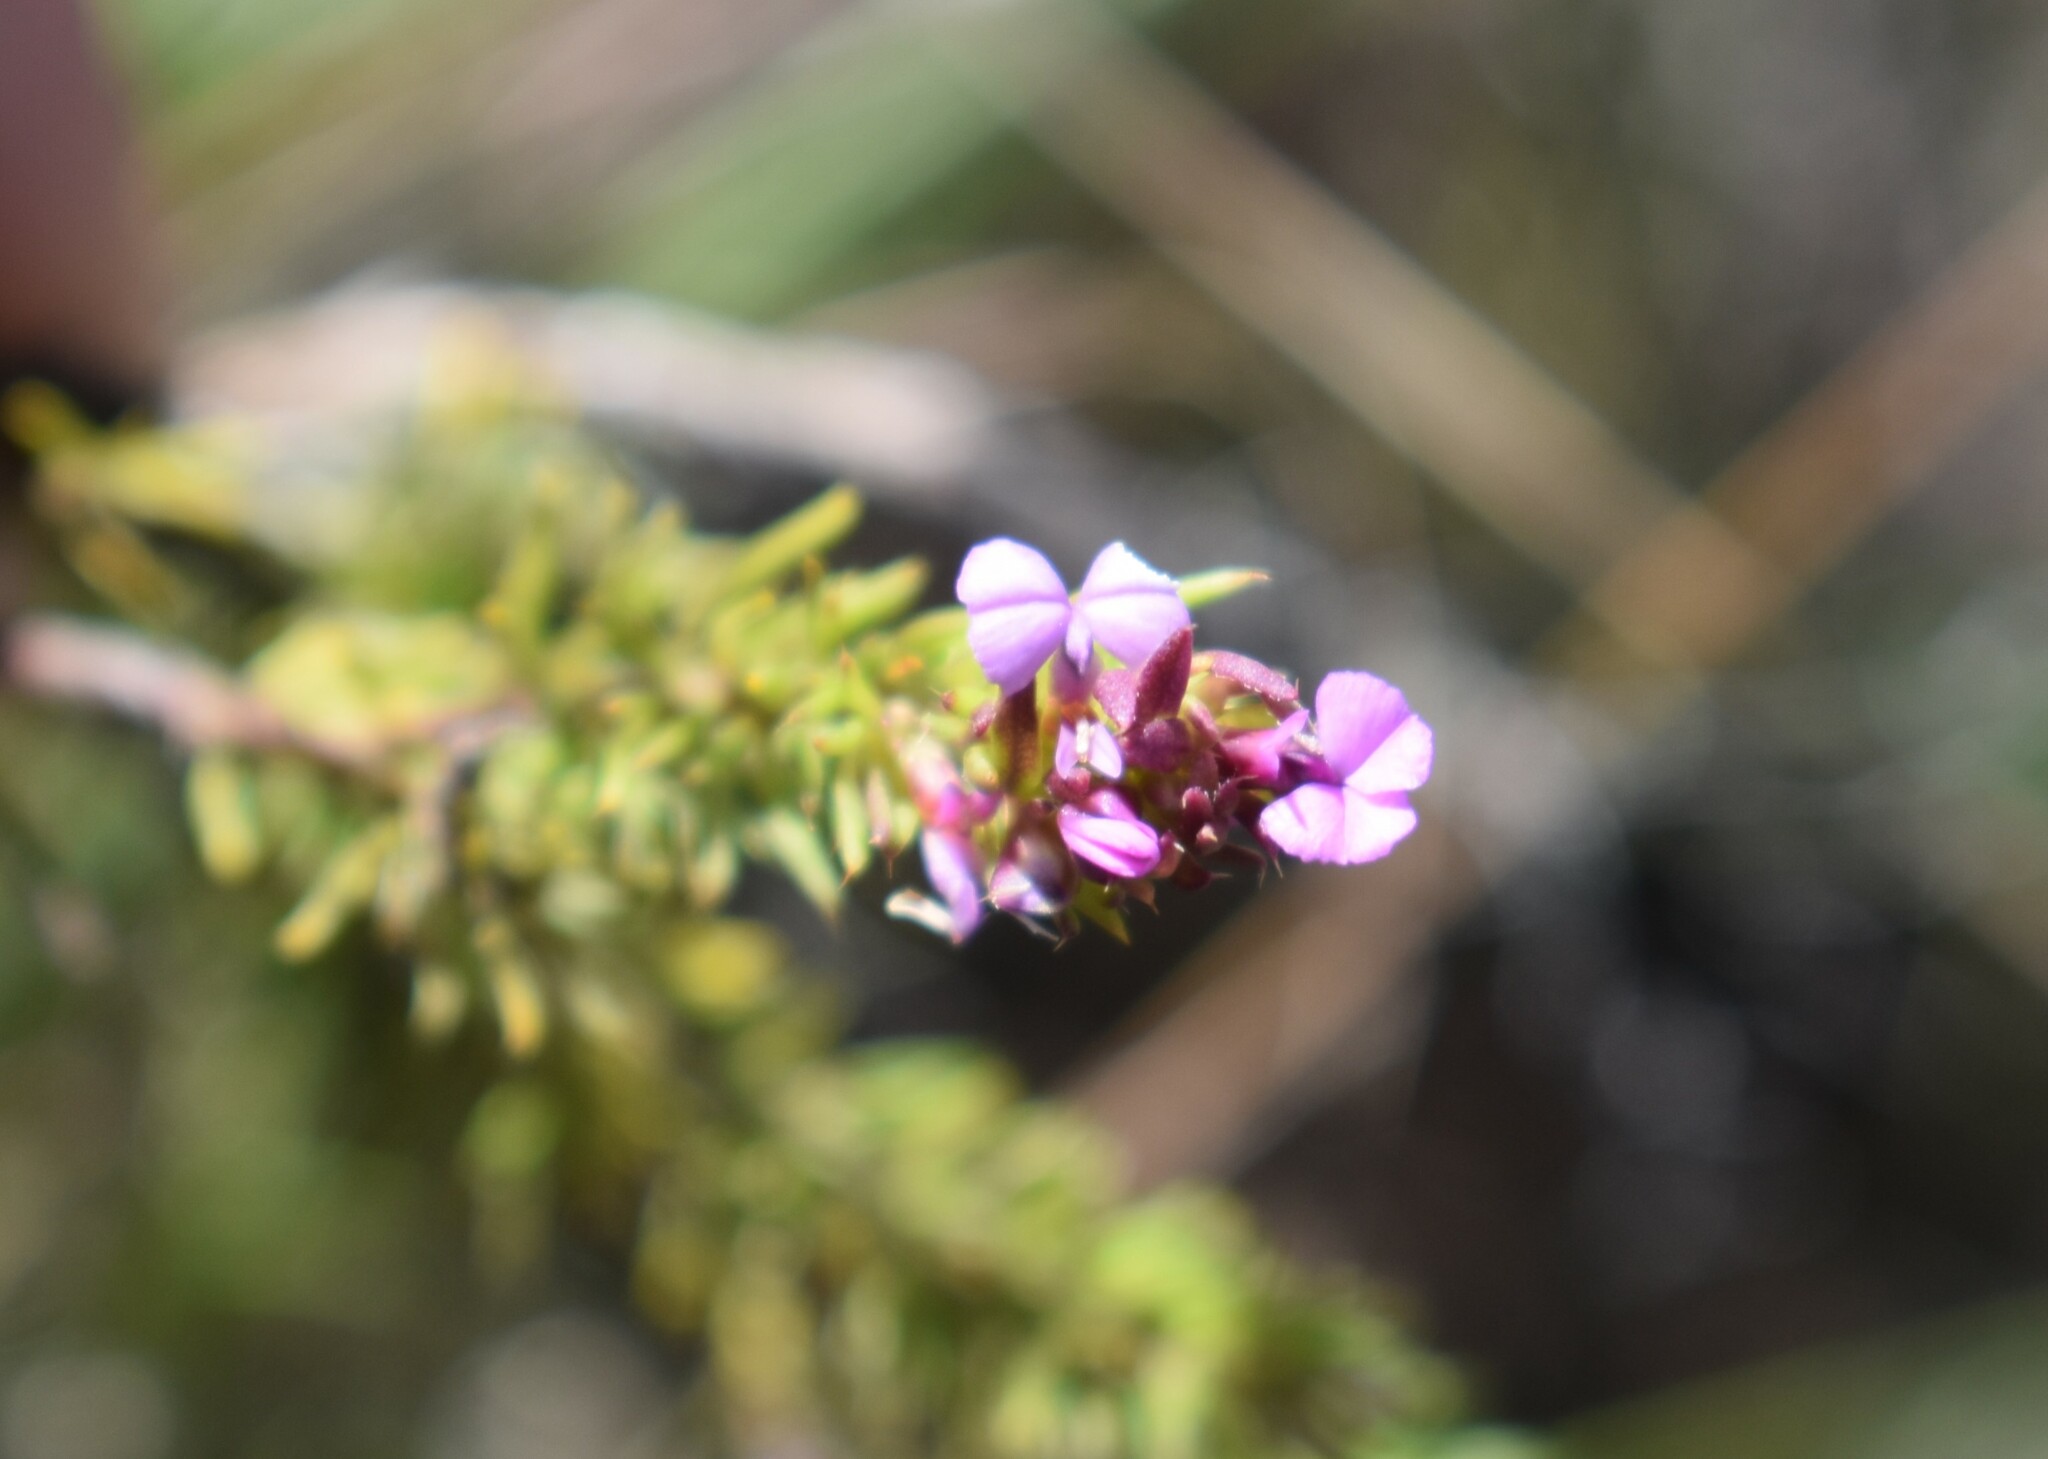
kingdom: Plantae
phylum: Tracheophyta
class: Magnoliopsida
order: Fabales
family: Polygalaceae
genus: Muraltia
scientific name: Muraltia alopecuroides
